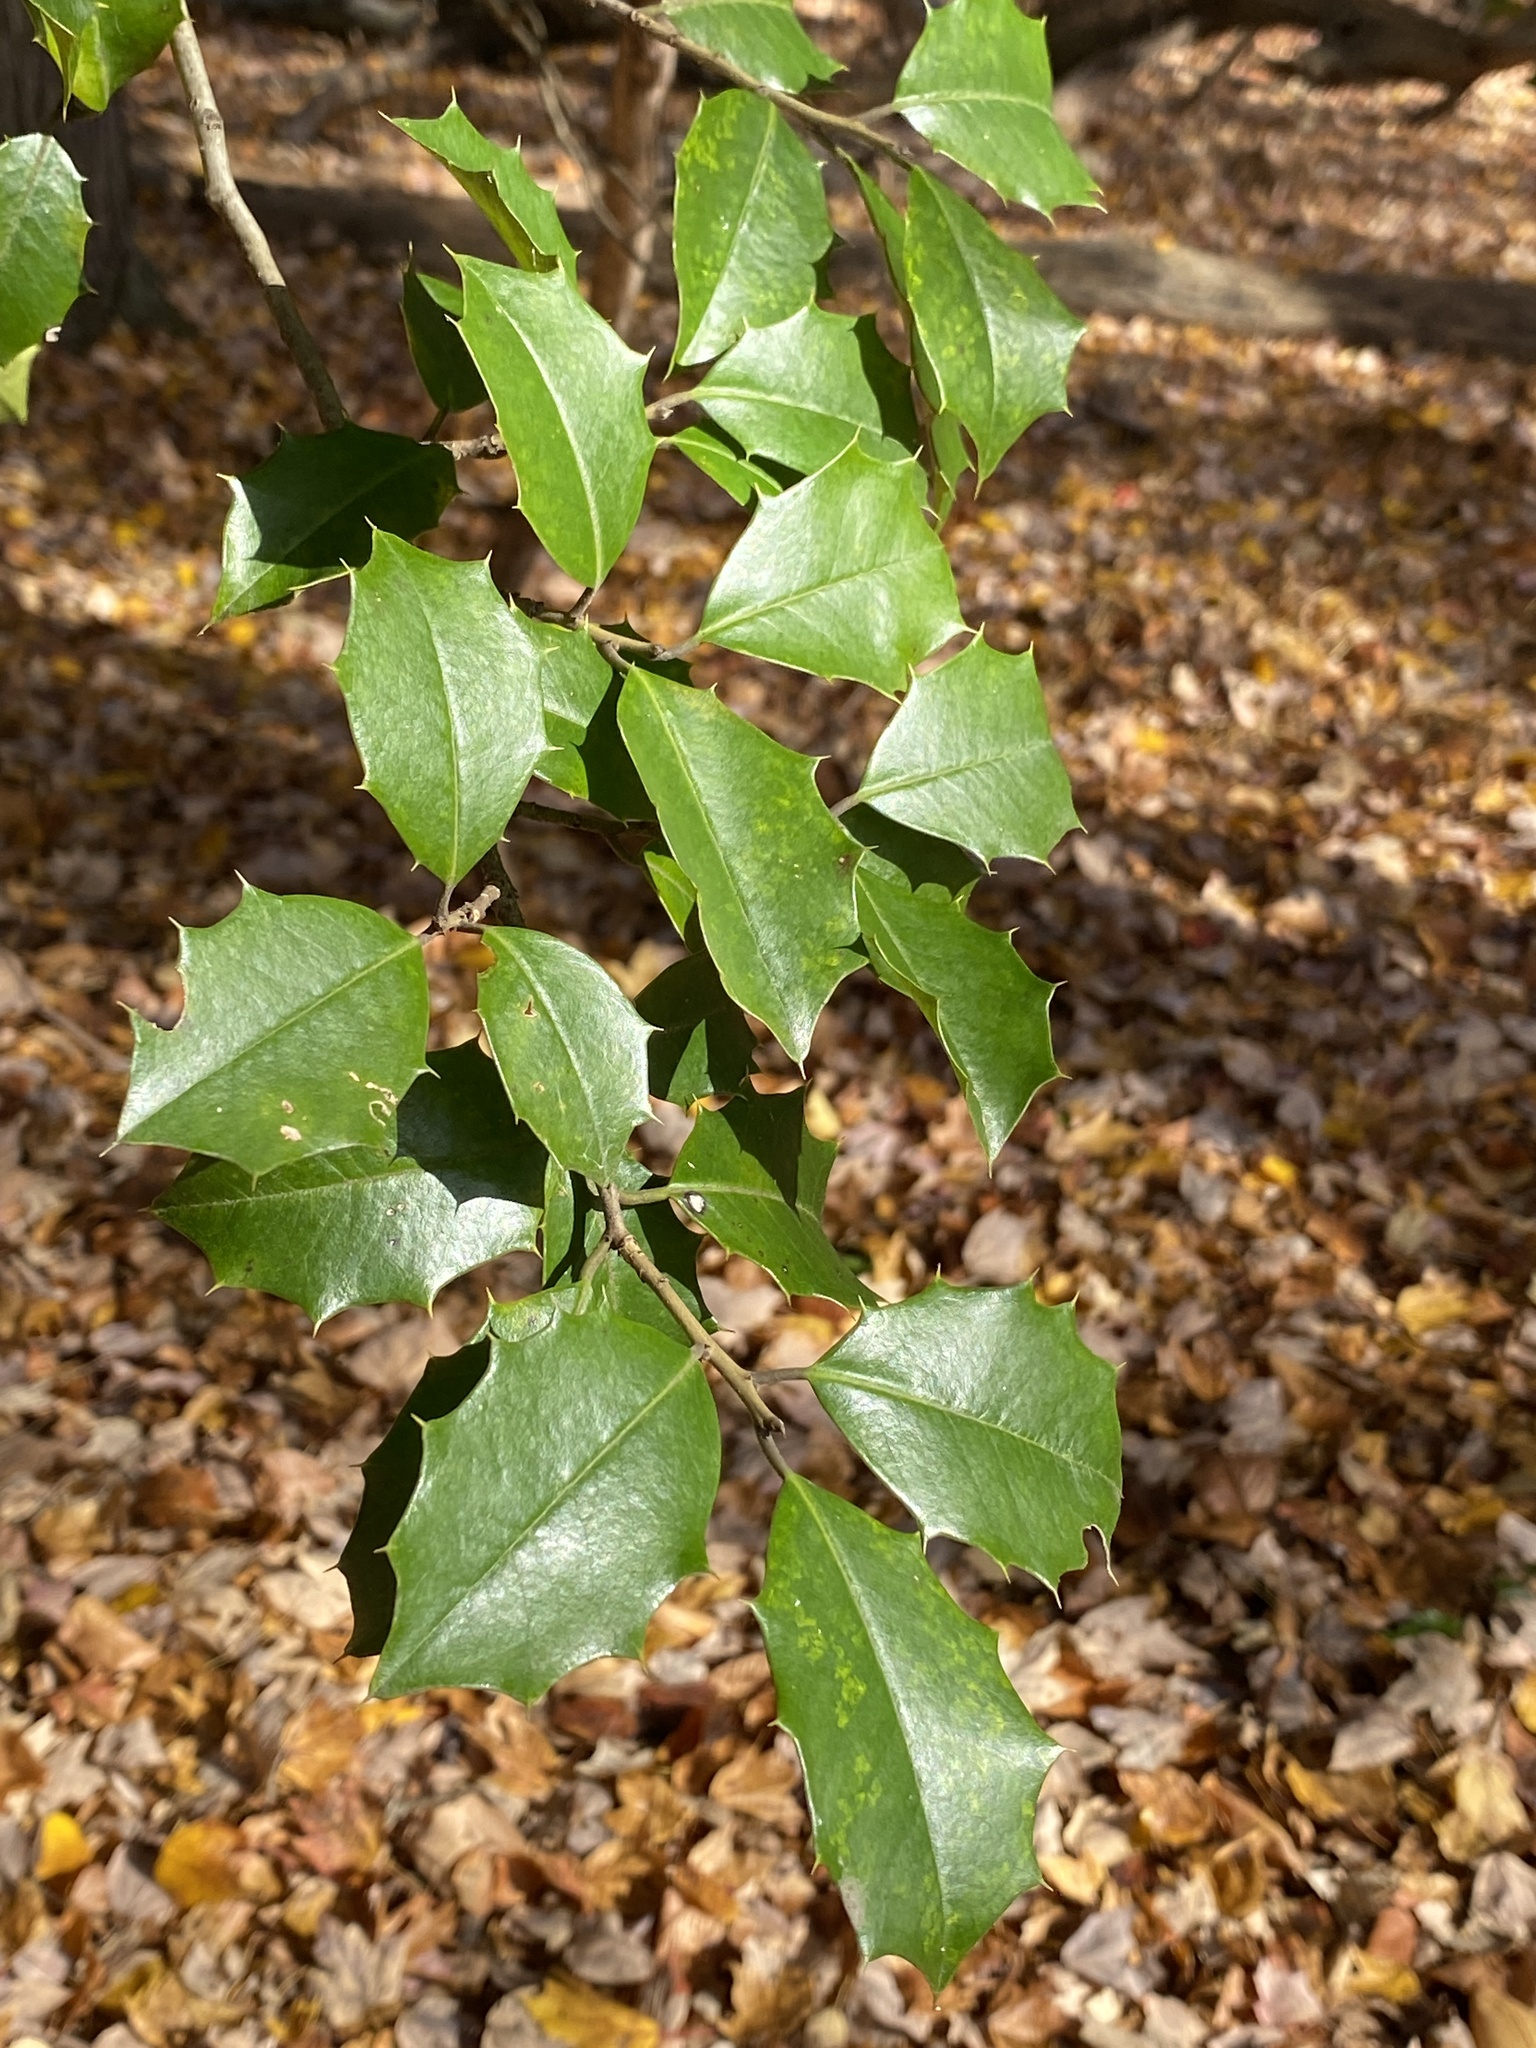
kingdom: Plantae
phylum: Tracheophyta
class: Magnoliopsida
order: Aquifoliales
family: Aquifoliaceae
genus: Ilex
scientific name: Ilex opaca
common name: American holly
